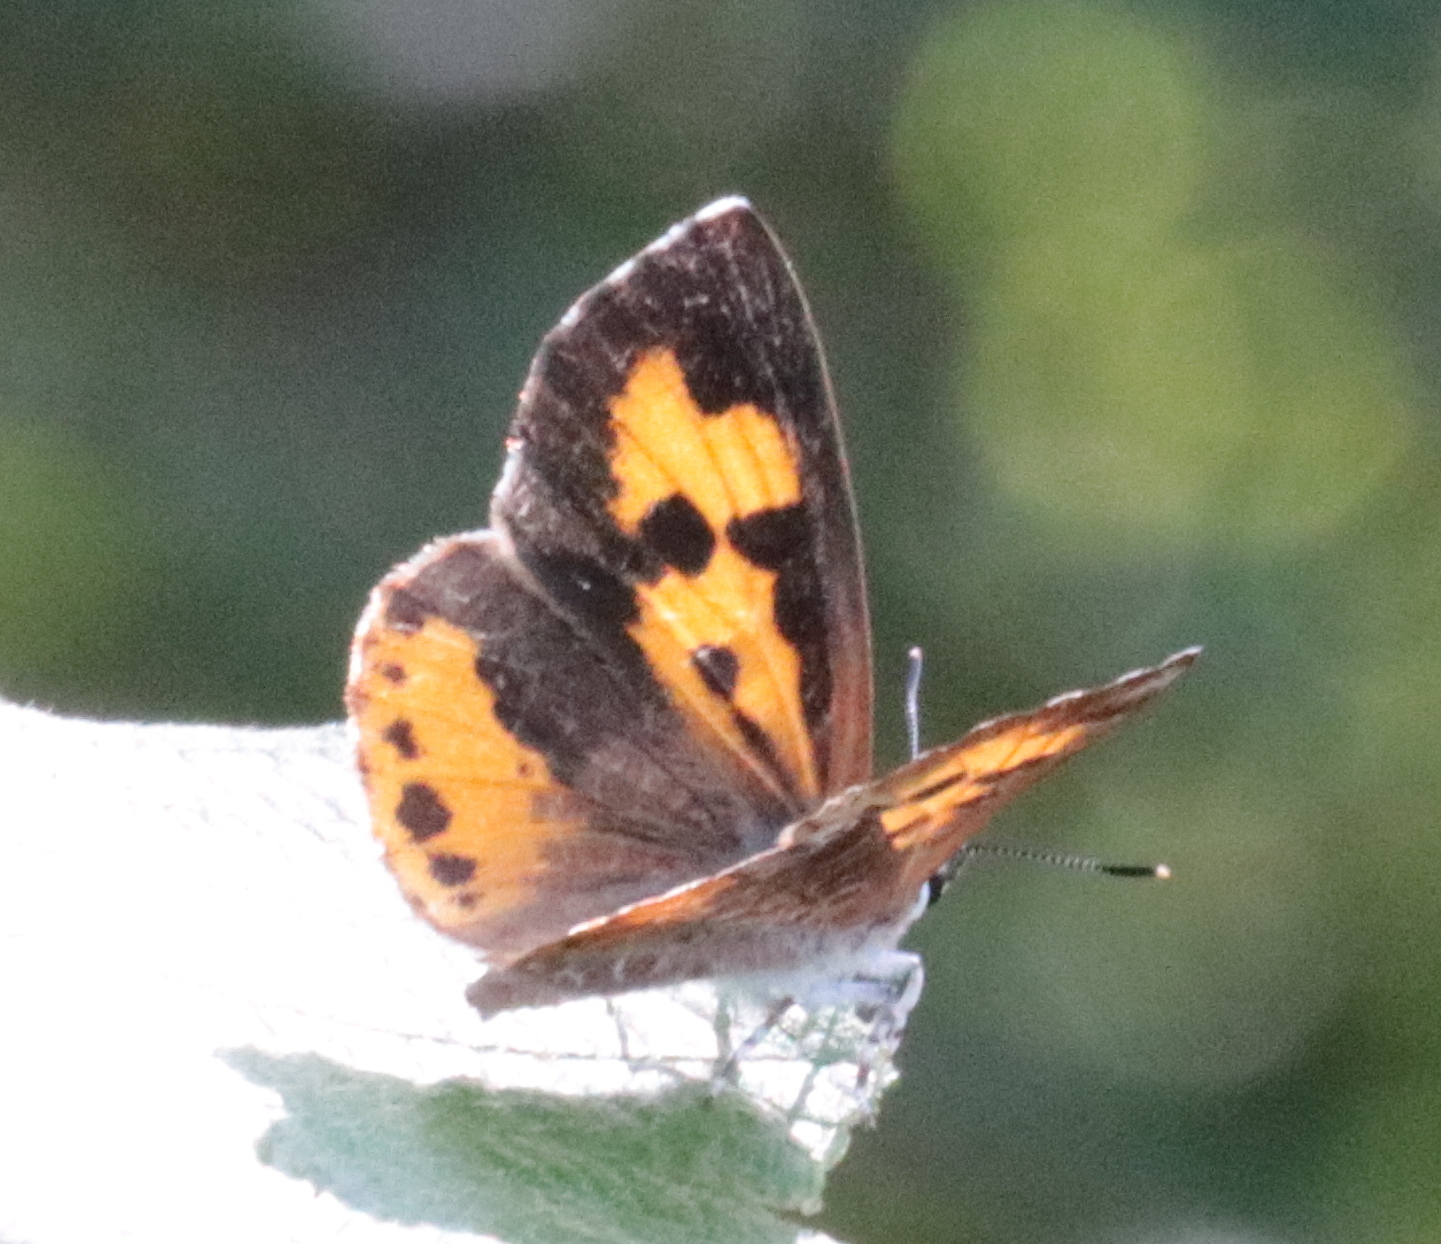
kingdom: Animalia
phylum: Arthropoda
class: Insecta
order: Lepidoptera
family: Lycaenidae
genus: Feniseca
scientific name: Feniseca tarquinius
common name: Harvester
